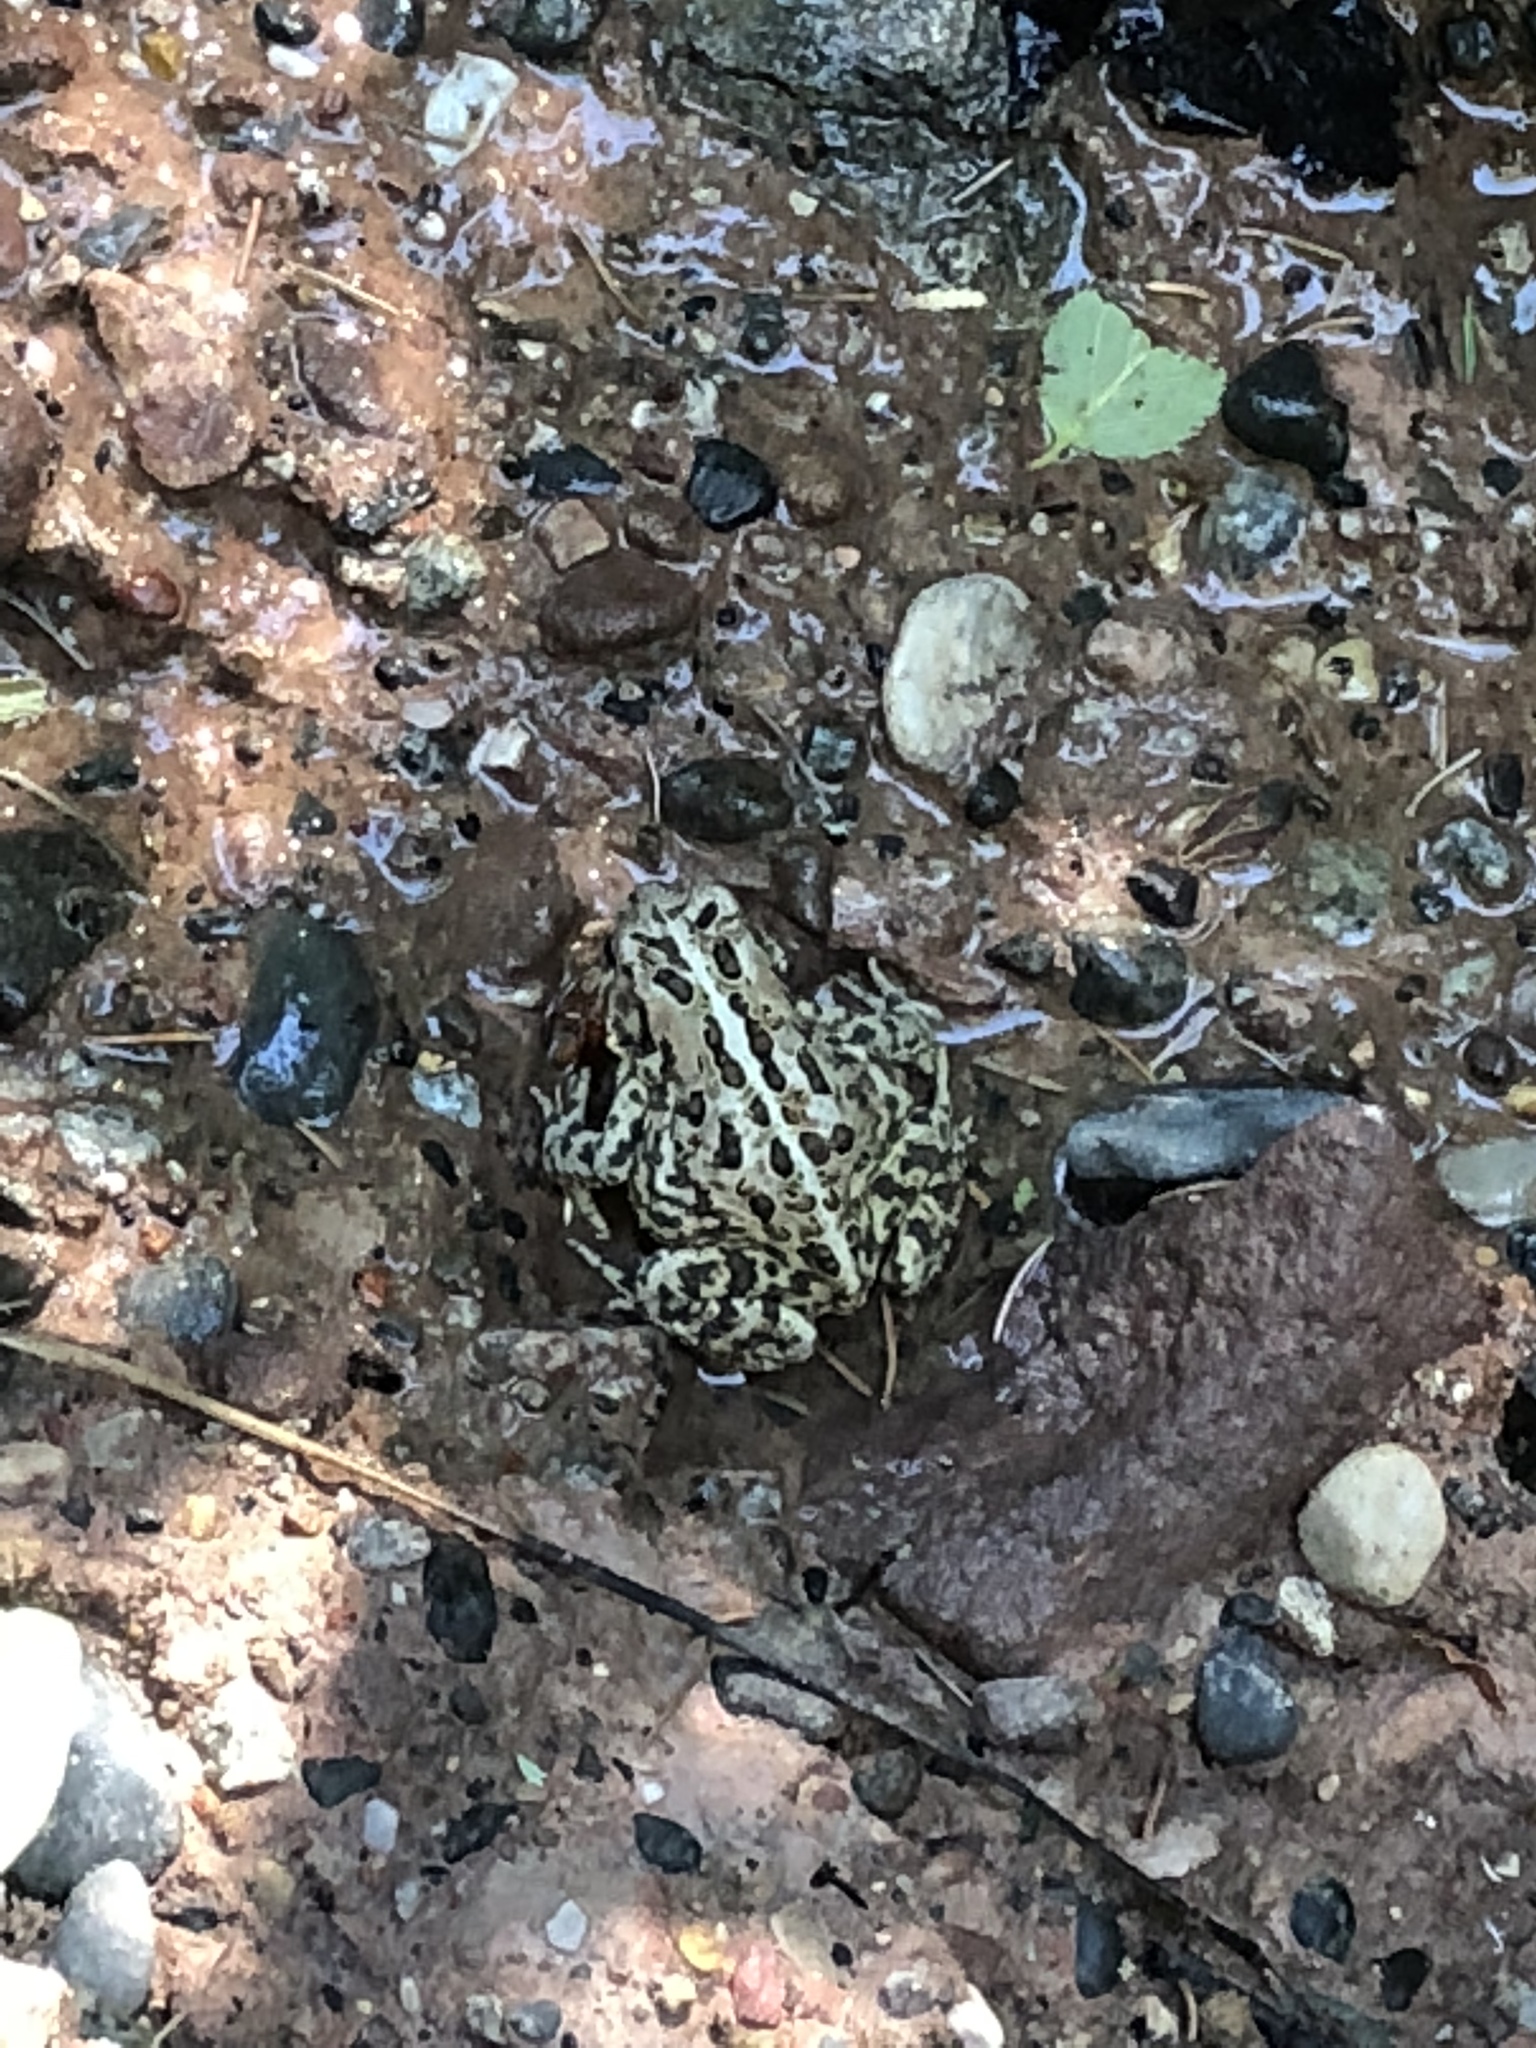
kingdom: Animalia
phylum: Chordata
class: Amphibia
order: Anura
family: Bufonidae
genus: Anaxyrus
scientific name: Anaxyrus americanus
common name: American toad
